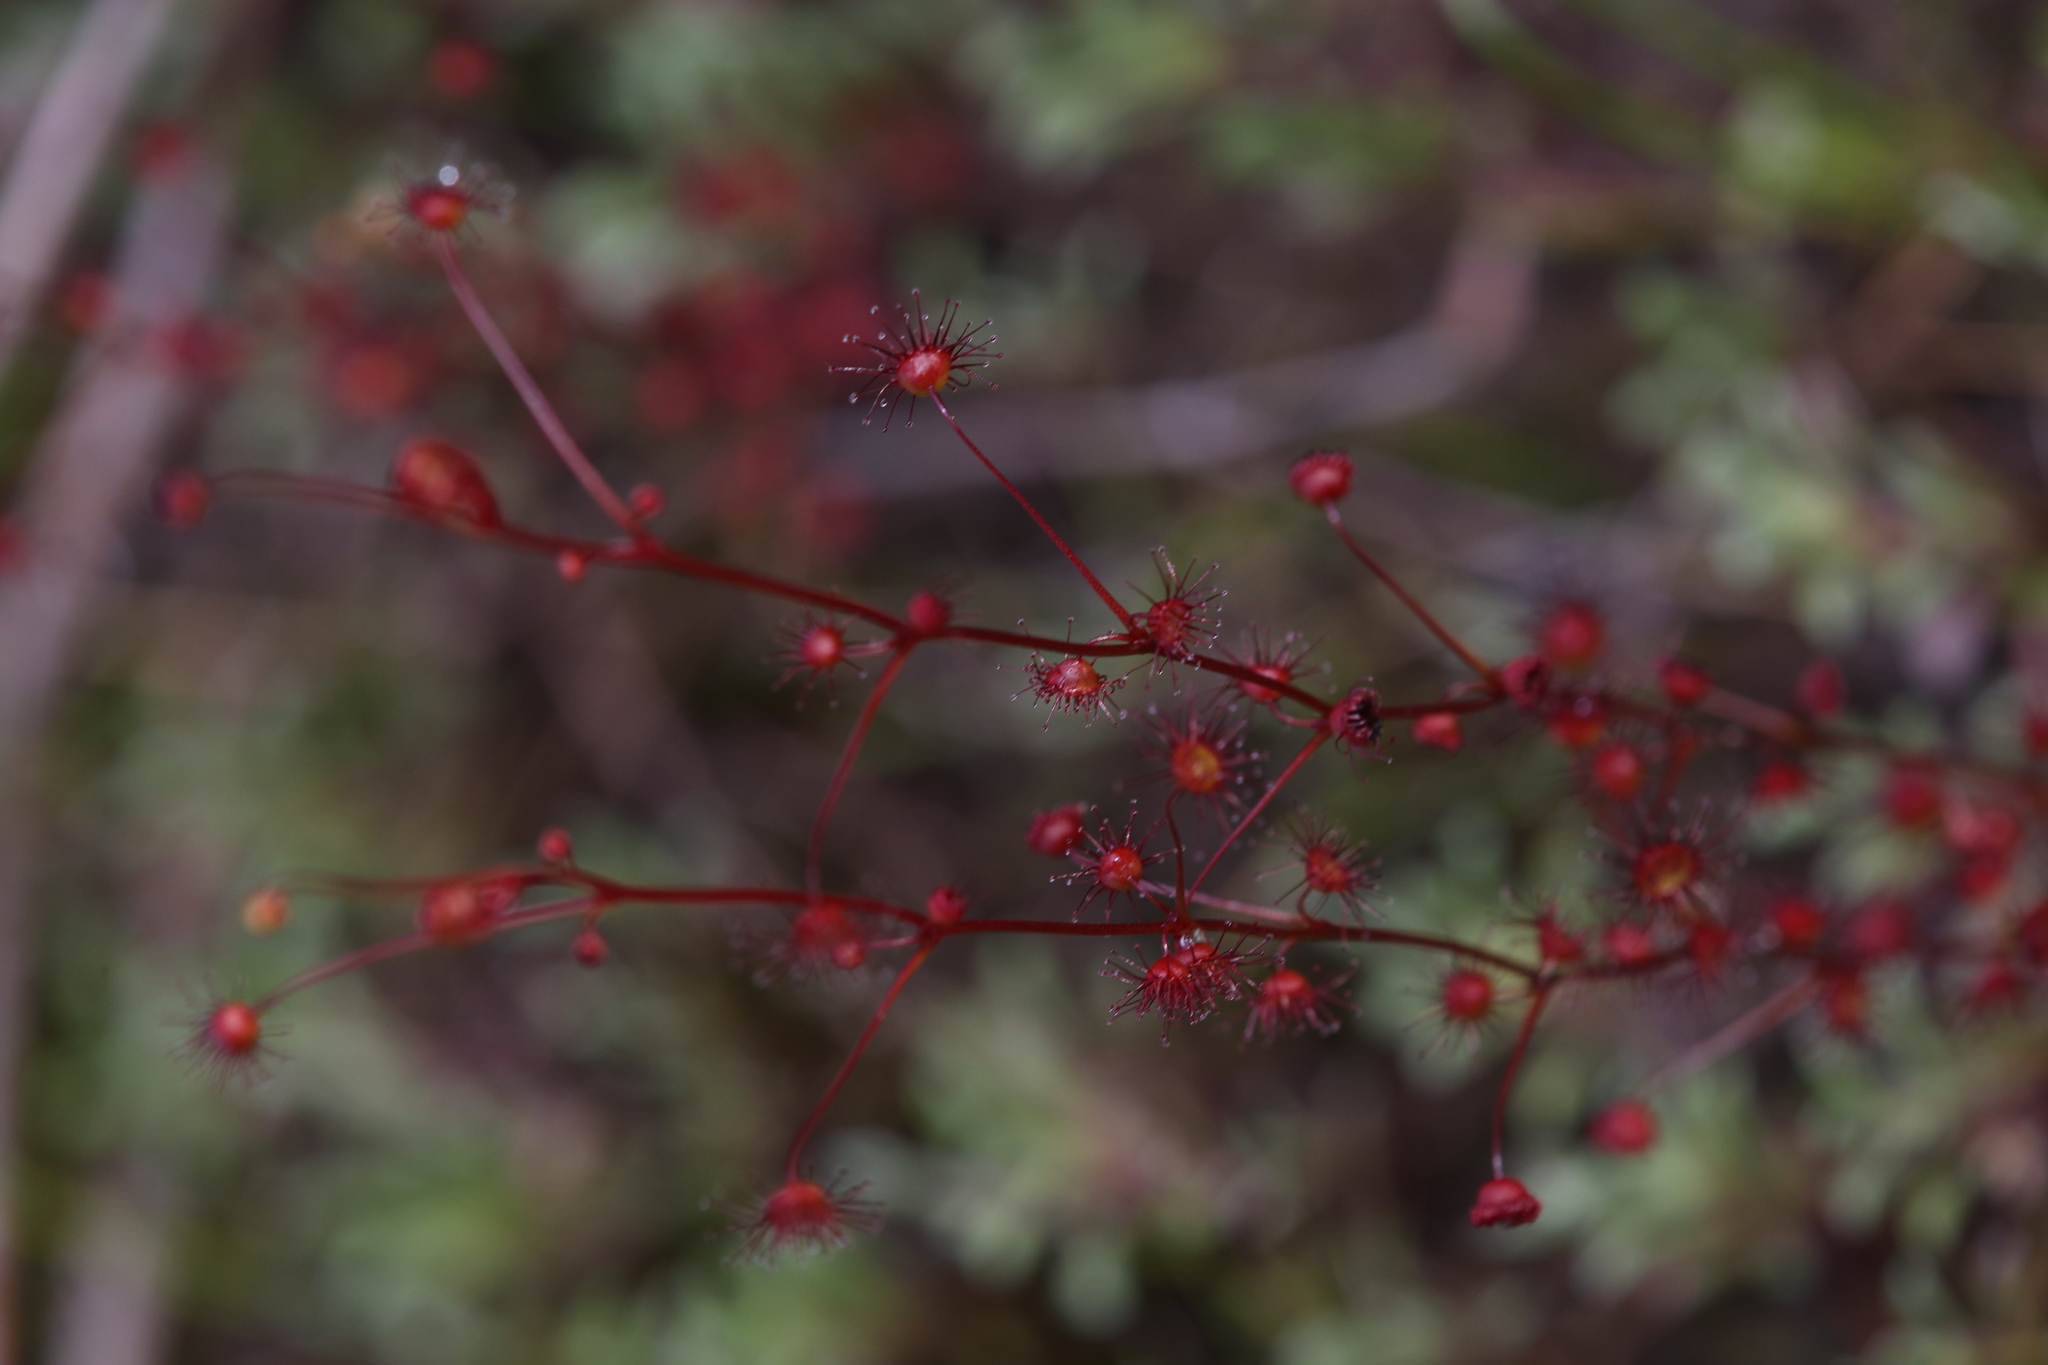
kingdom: Plantae
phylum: Tracheophyta
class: Magnoliopsida
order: Caryophyllales
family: Droseraceae
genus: Drosera
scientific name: Drosera menziesii
